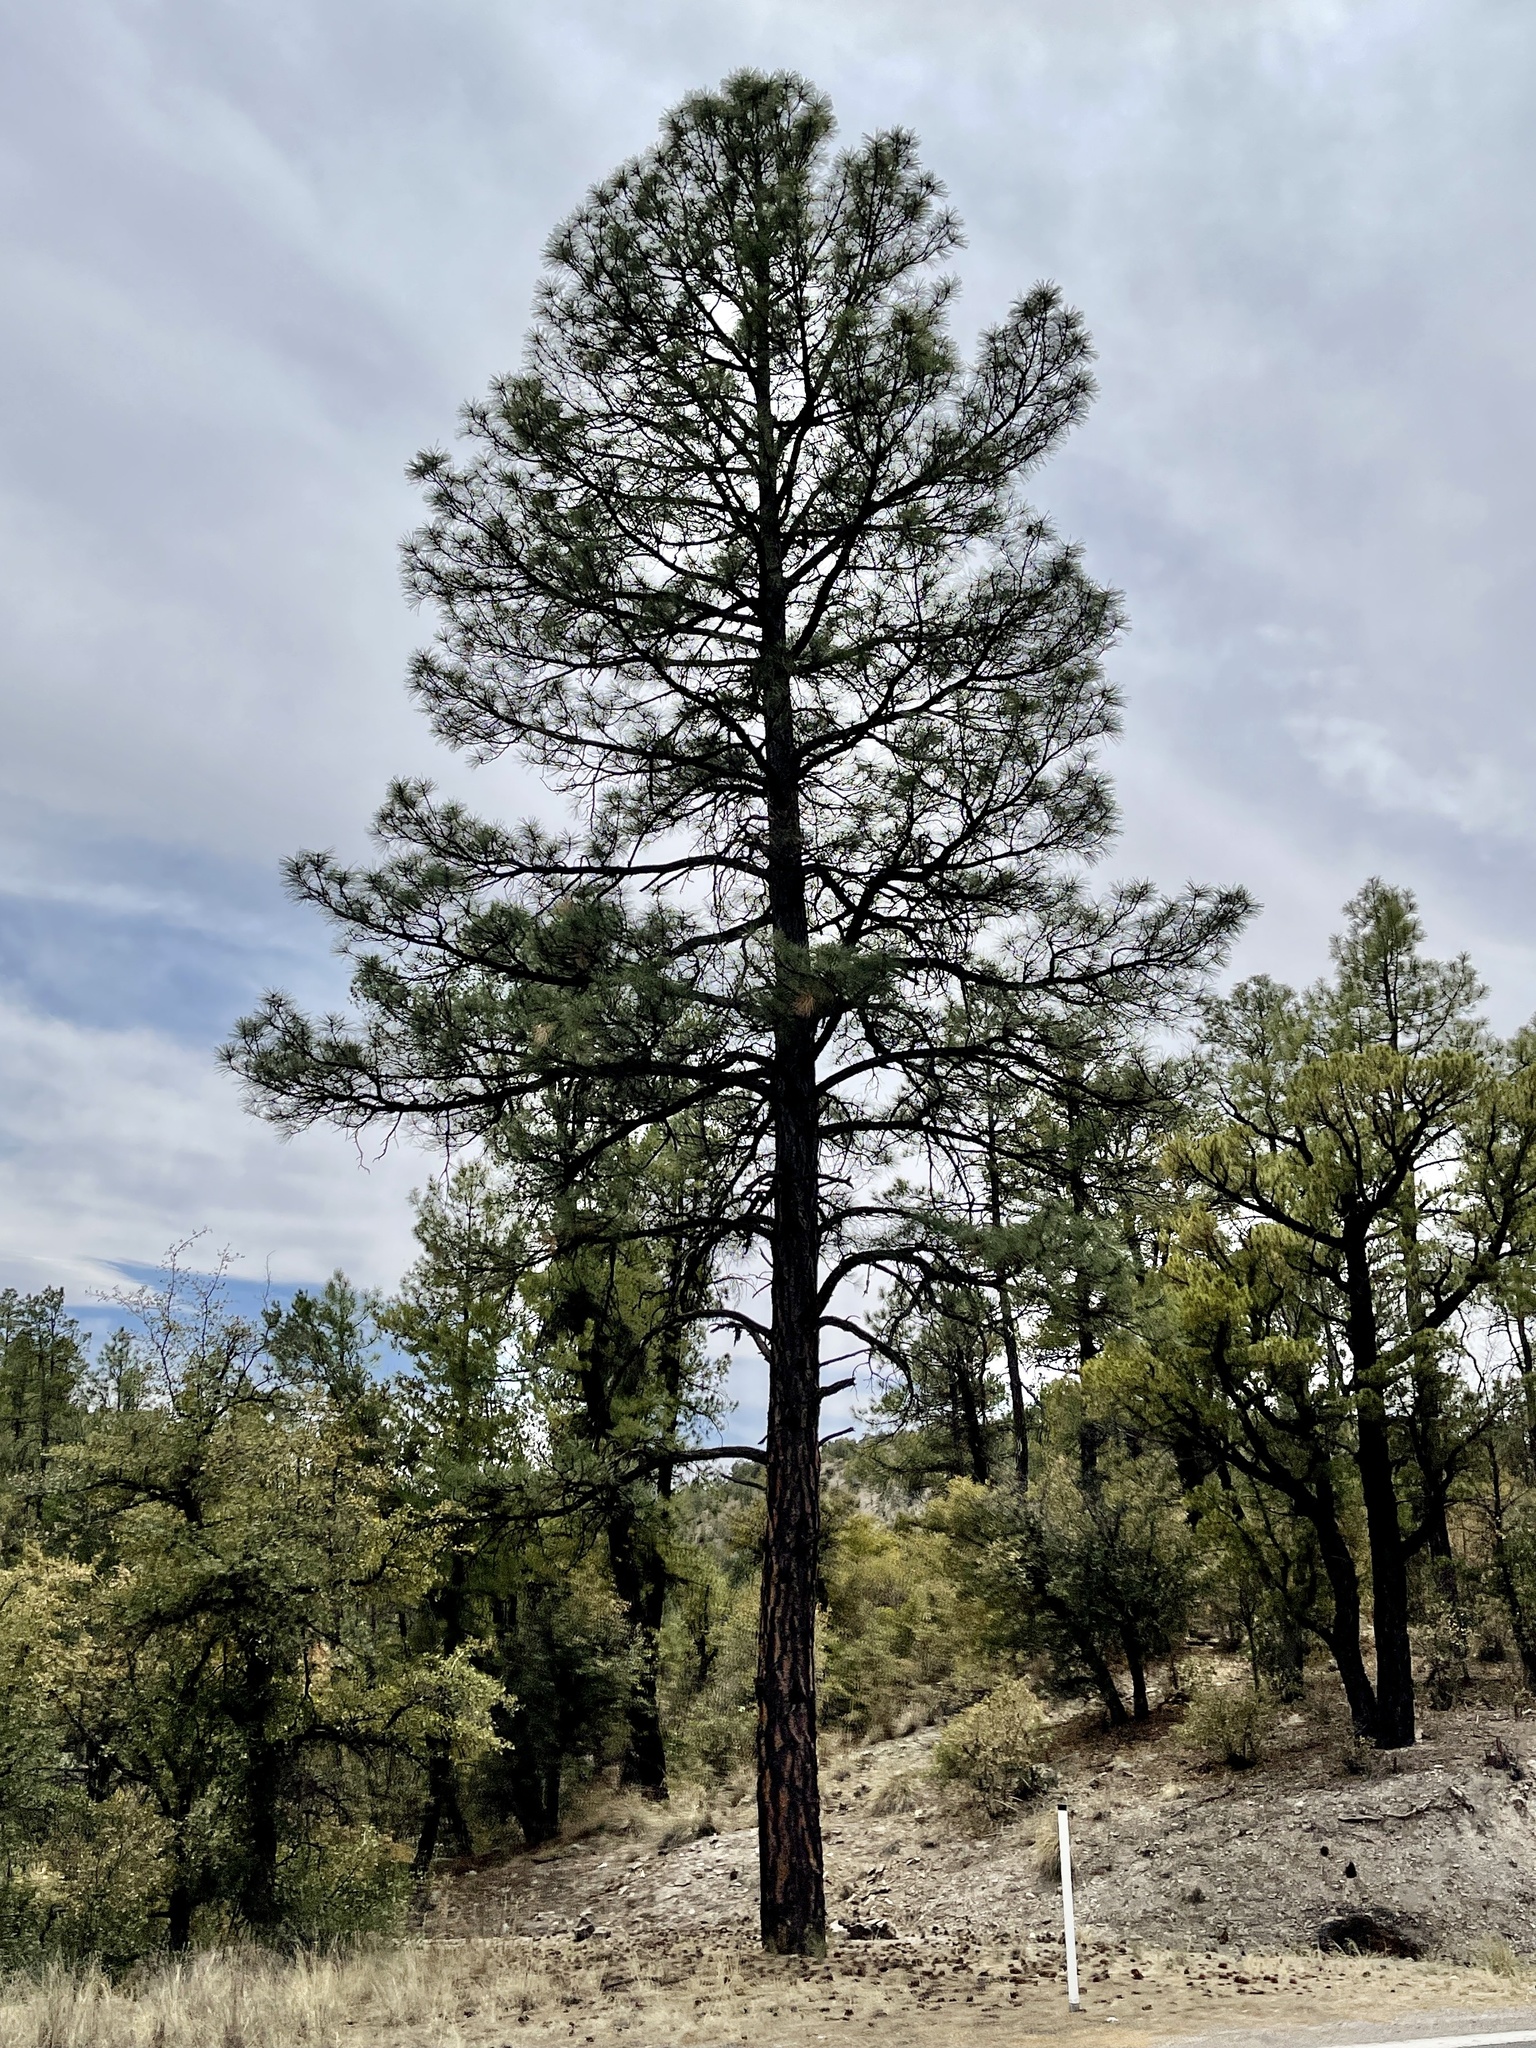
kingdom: Plantae
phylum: Tracheophyta
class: Pinopsida
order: Pinales
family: Pinaceae
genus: Pinus
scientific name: Pinus ponderosa
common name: Western yellow-pine
